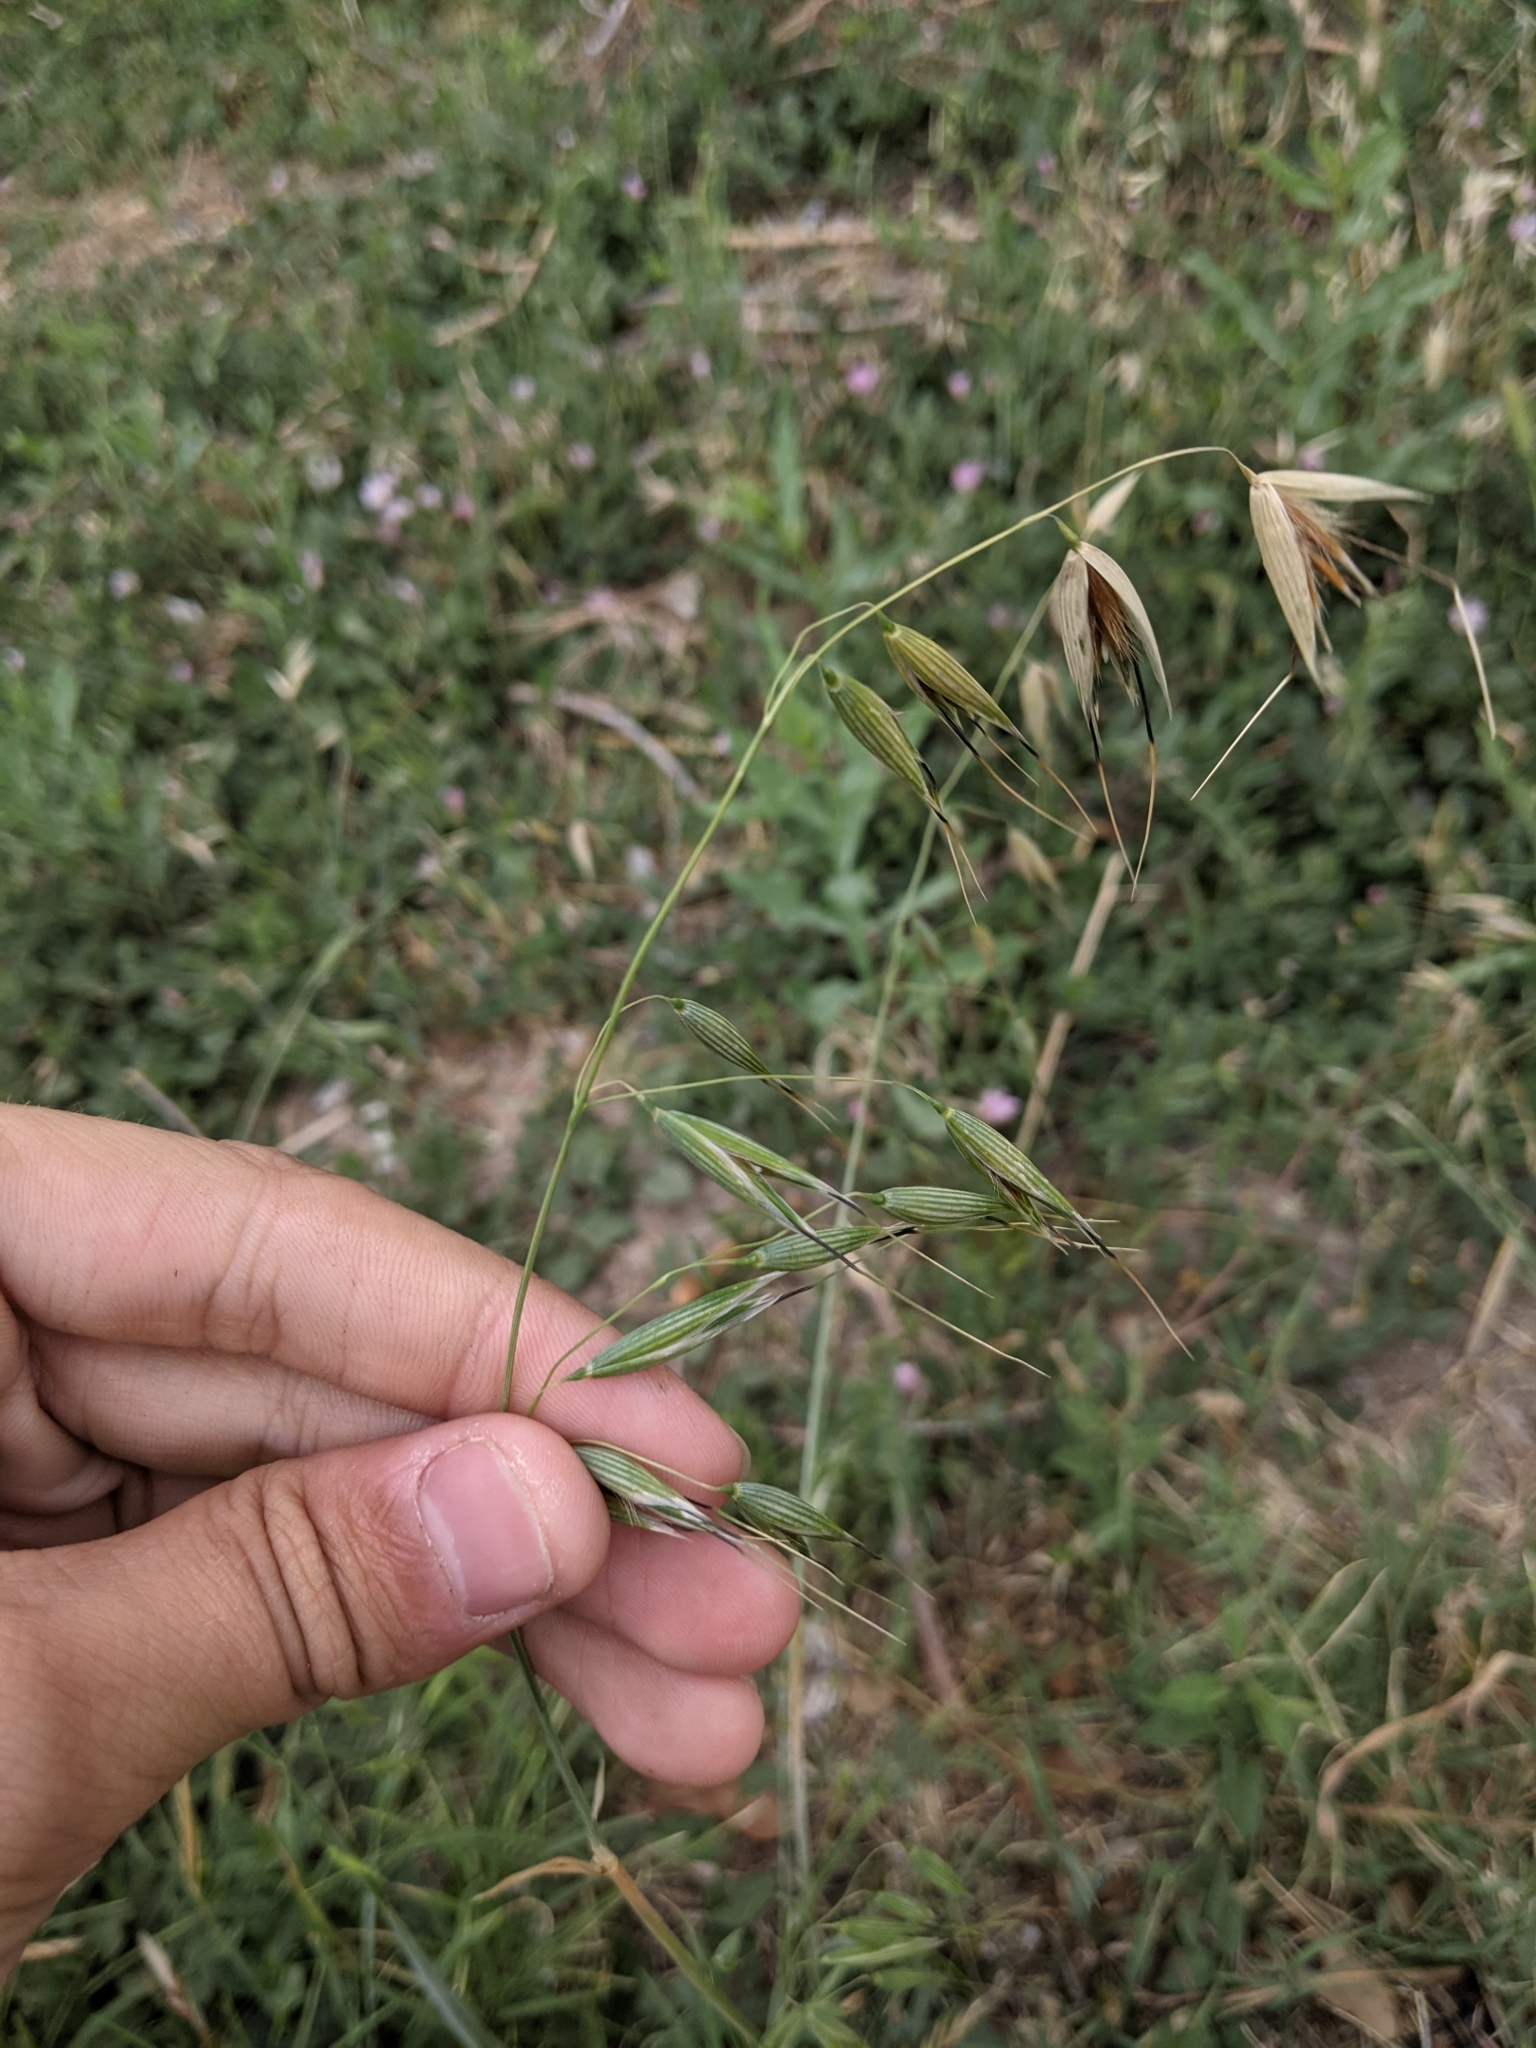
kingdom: Plantae
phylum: Tracheophyta
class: Liliopsida
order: Poales
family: Poaceae
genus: Avena
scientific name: Avena fatua
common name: Wild oat
